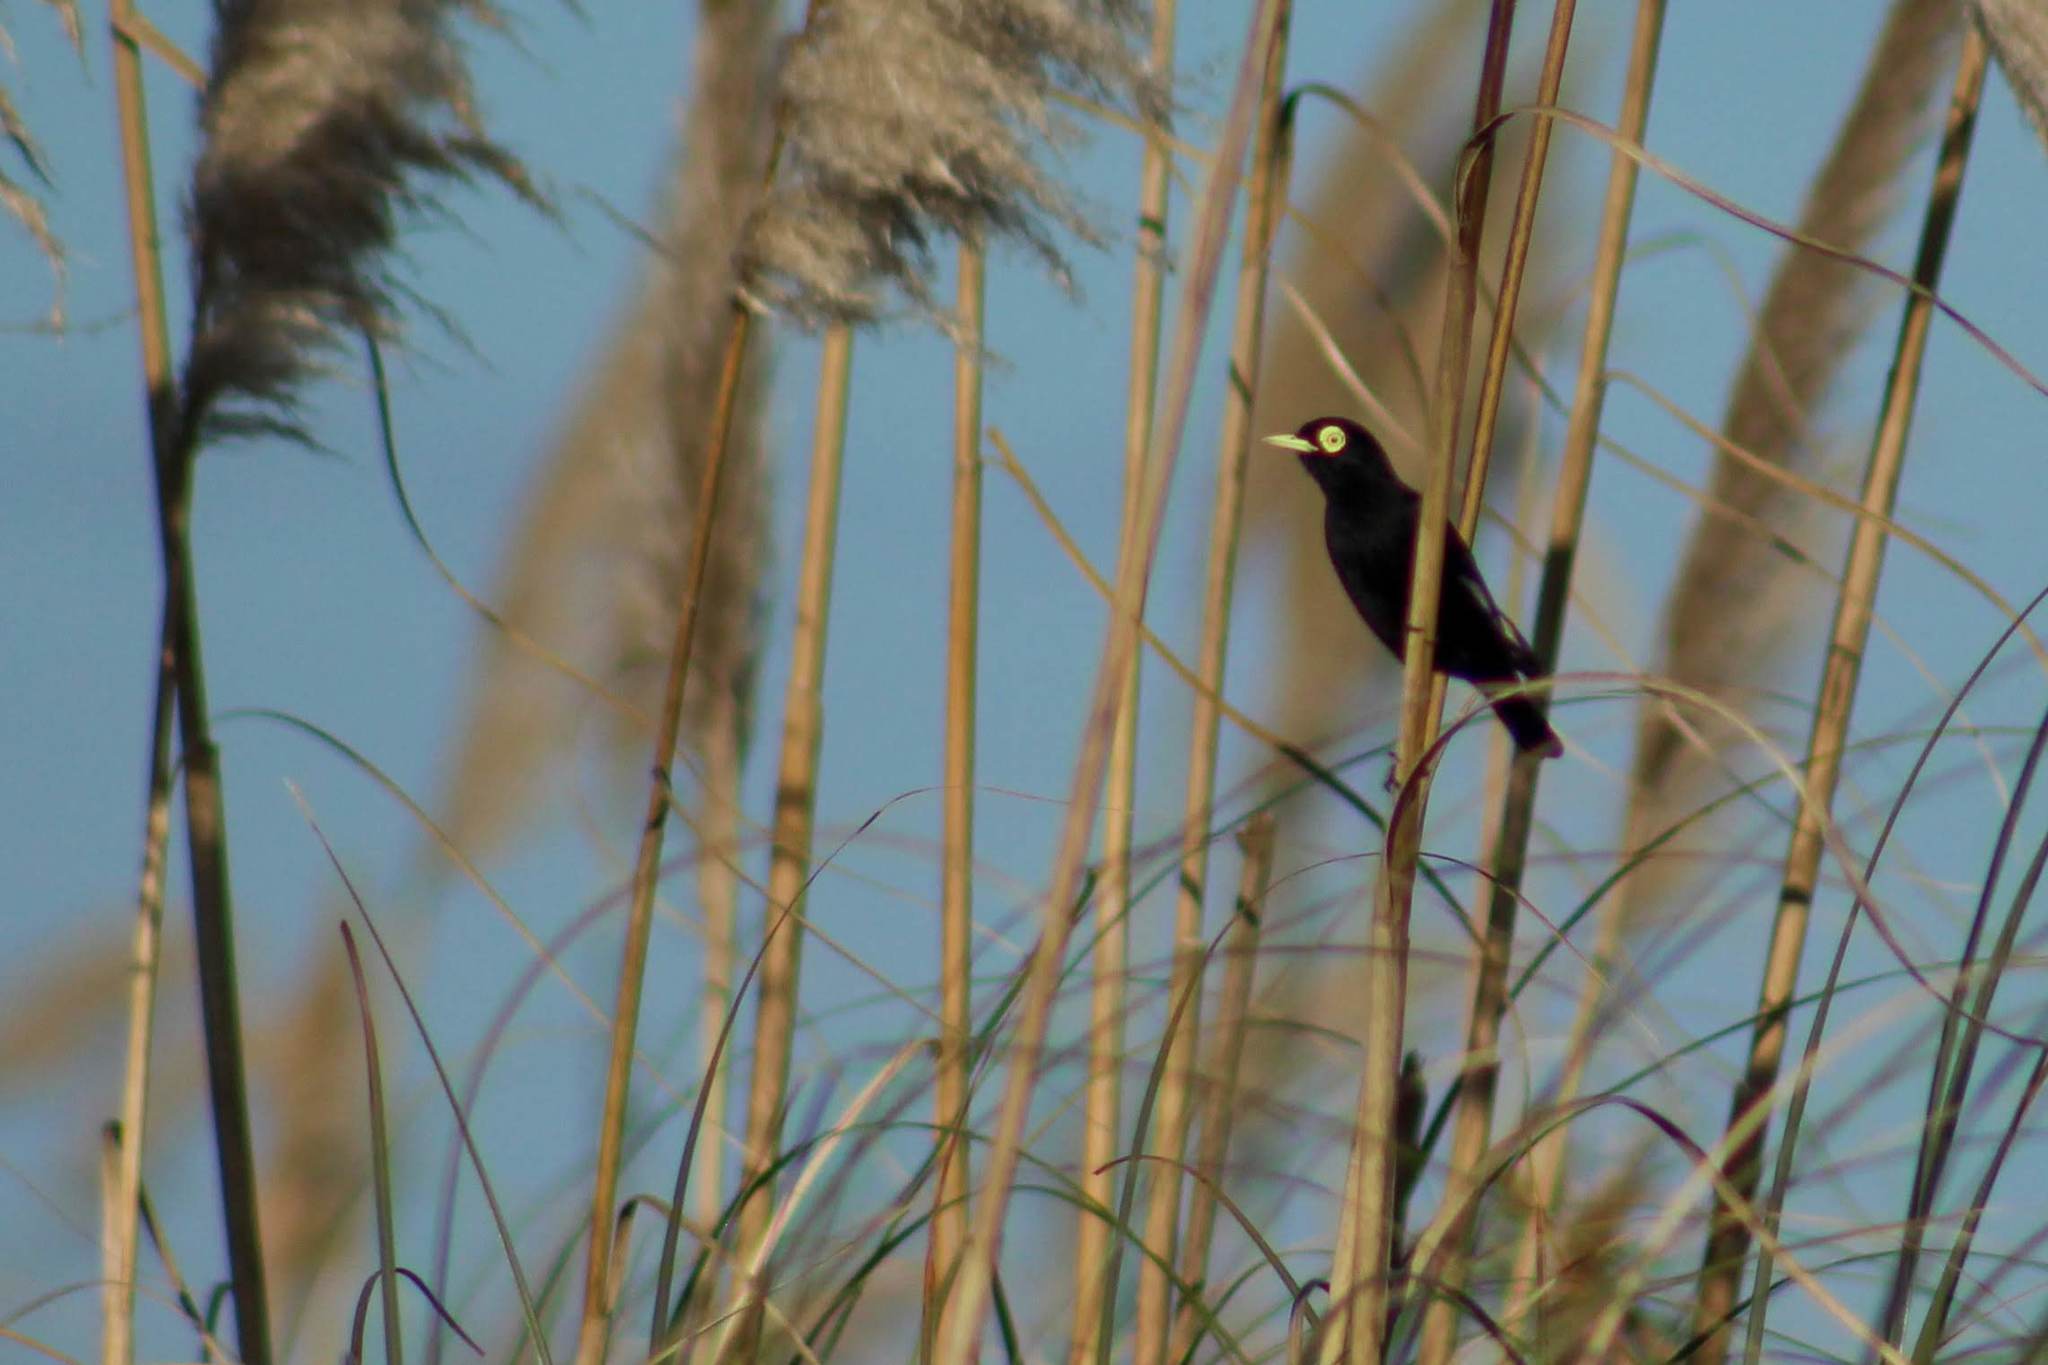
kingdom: Animalia
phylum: Chordata
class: Aves
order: Passeriformes
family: Tyrannidae
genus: Hymenops
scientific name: Hymenops perspicillatus
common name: Spectacled tyrant
